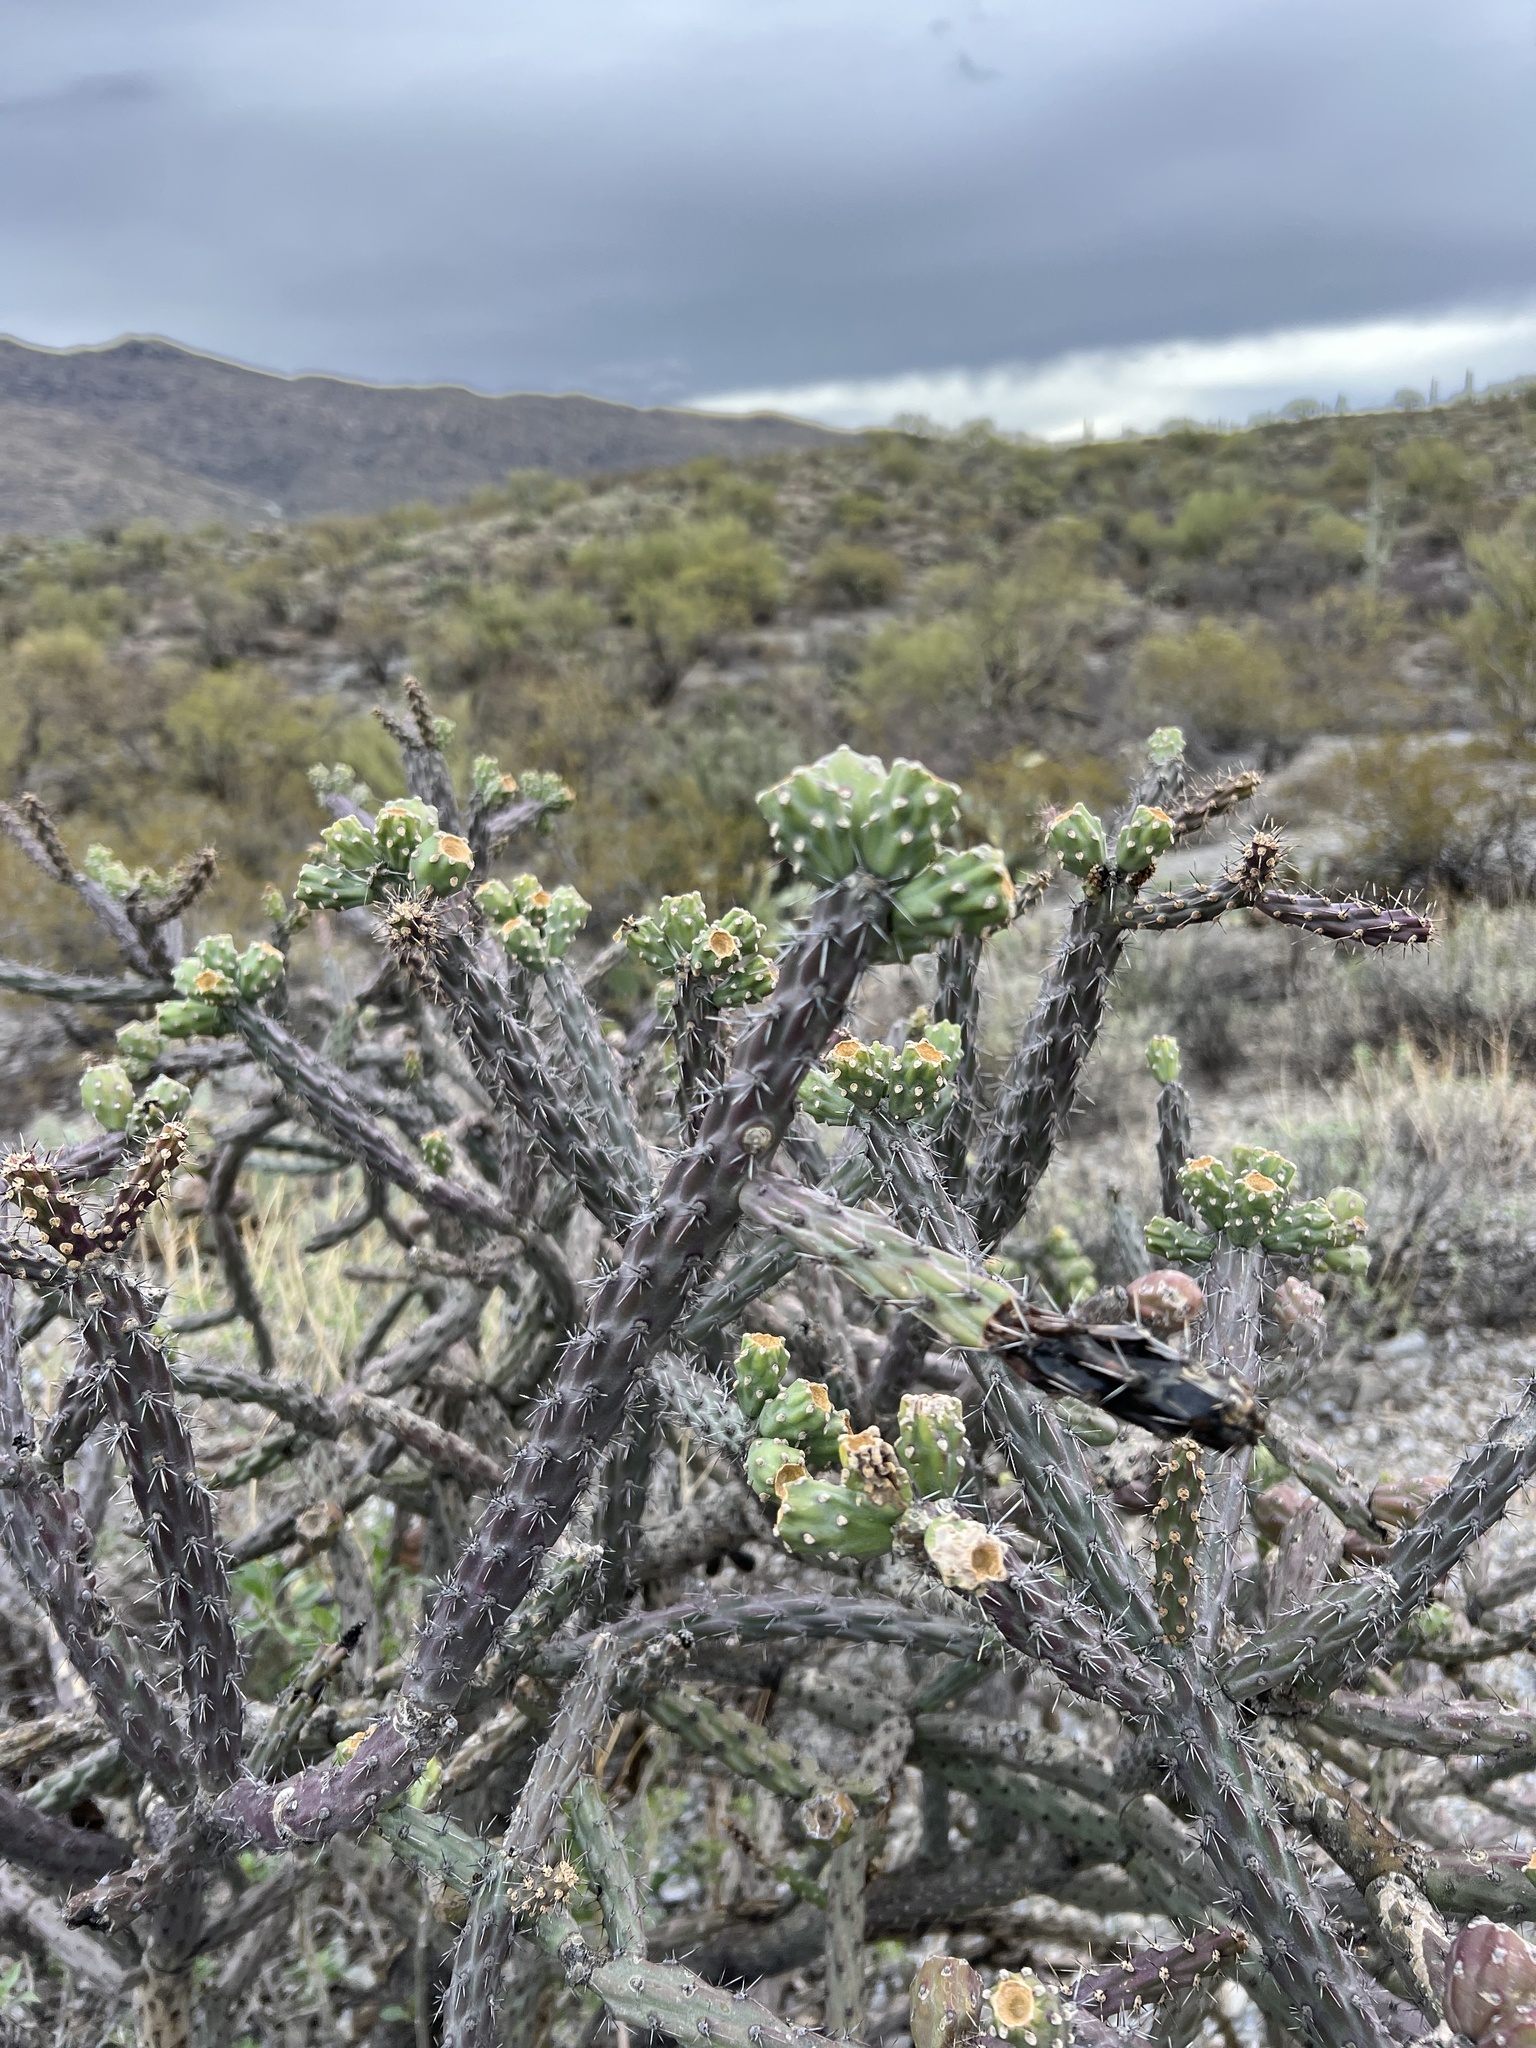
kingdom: Plantae
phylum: Tracheophyta
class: Magnoliopsida
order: Caryophyllales
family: Cactaceae
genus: Cylindropuntia
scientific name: Cylindropuntia thurberi
